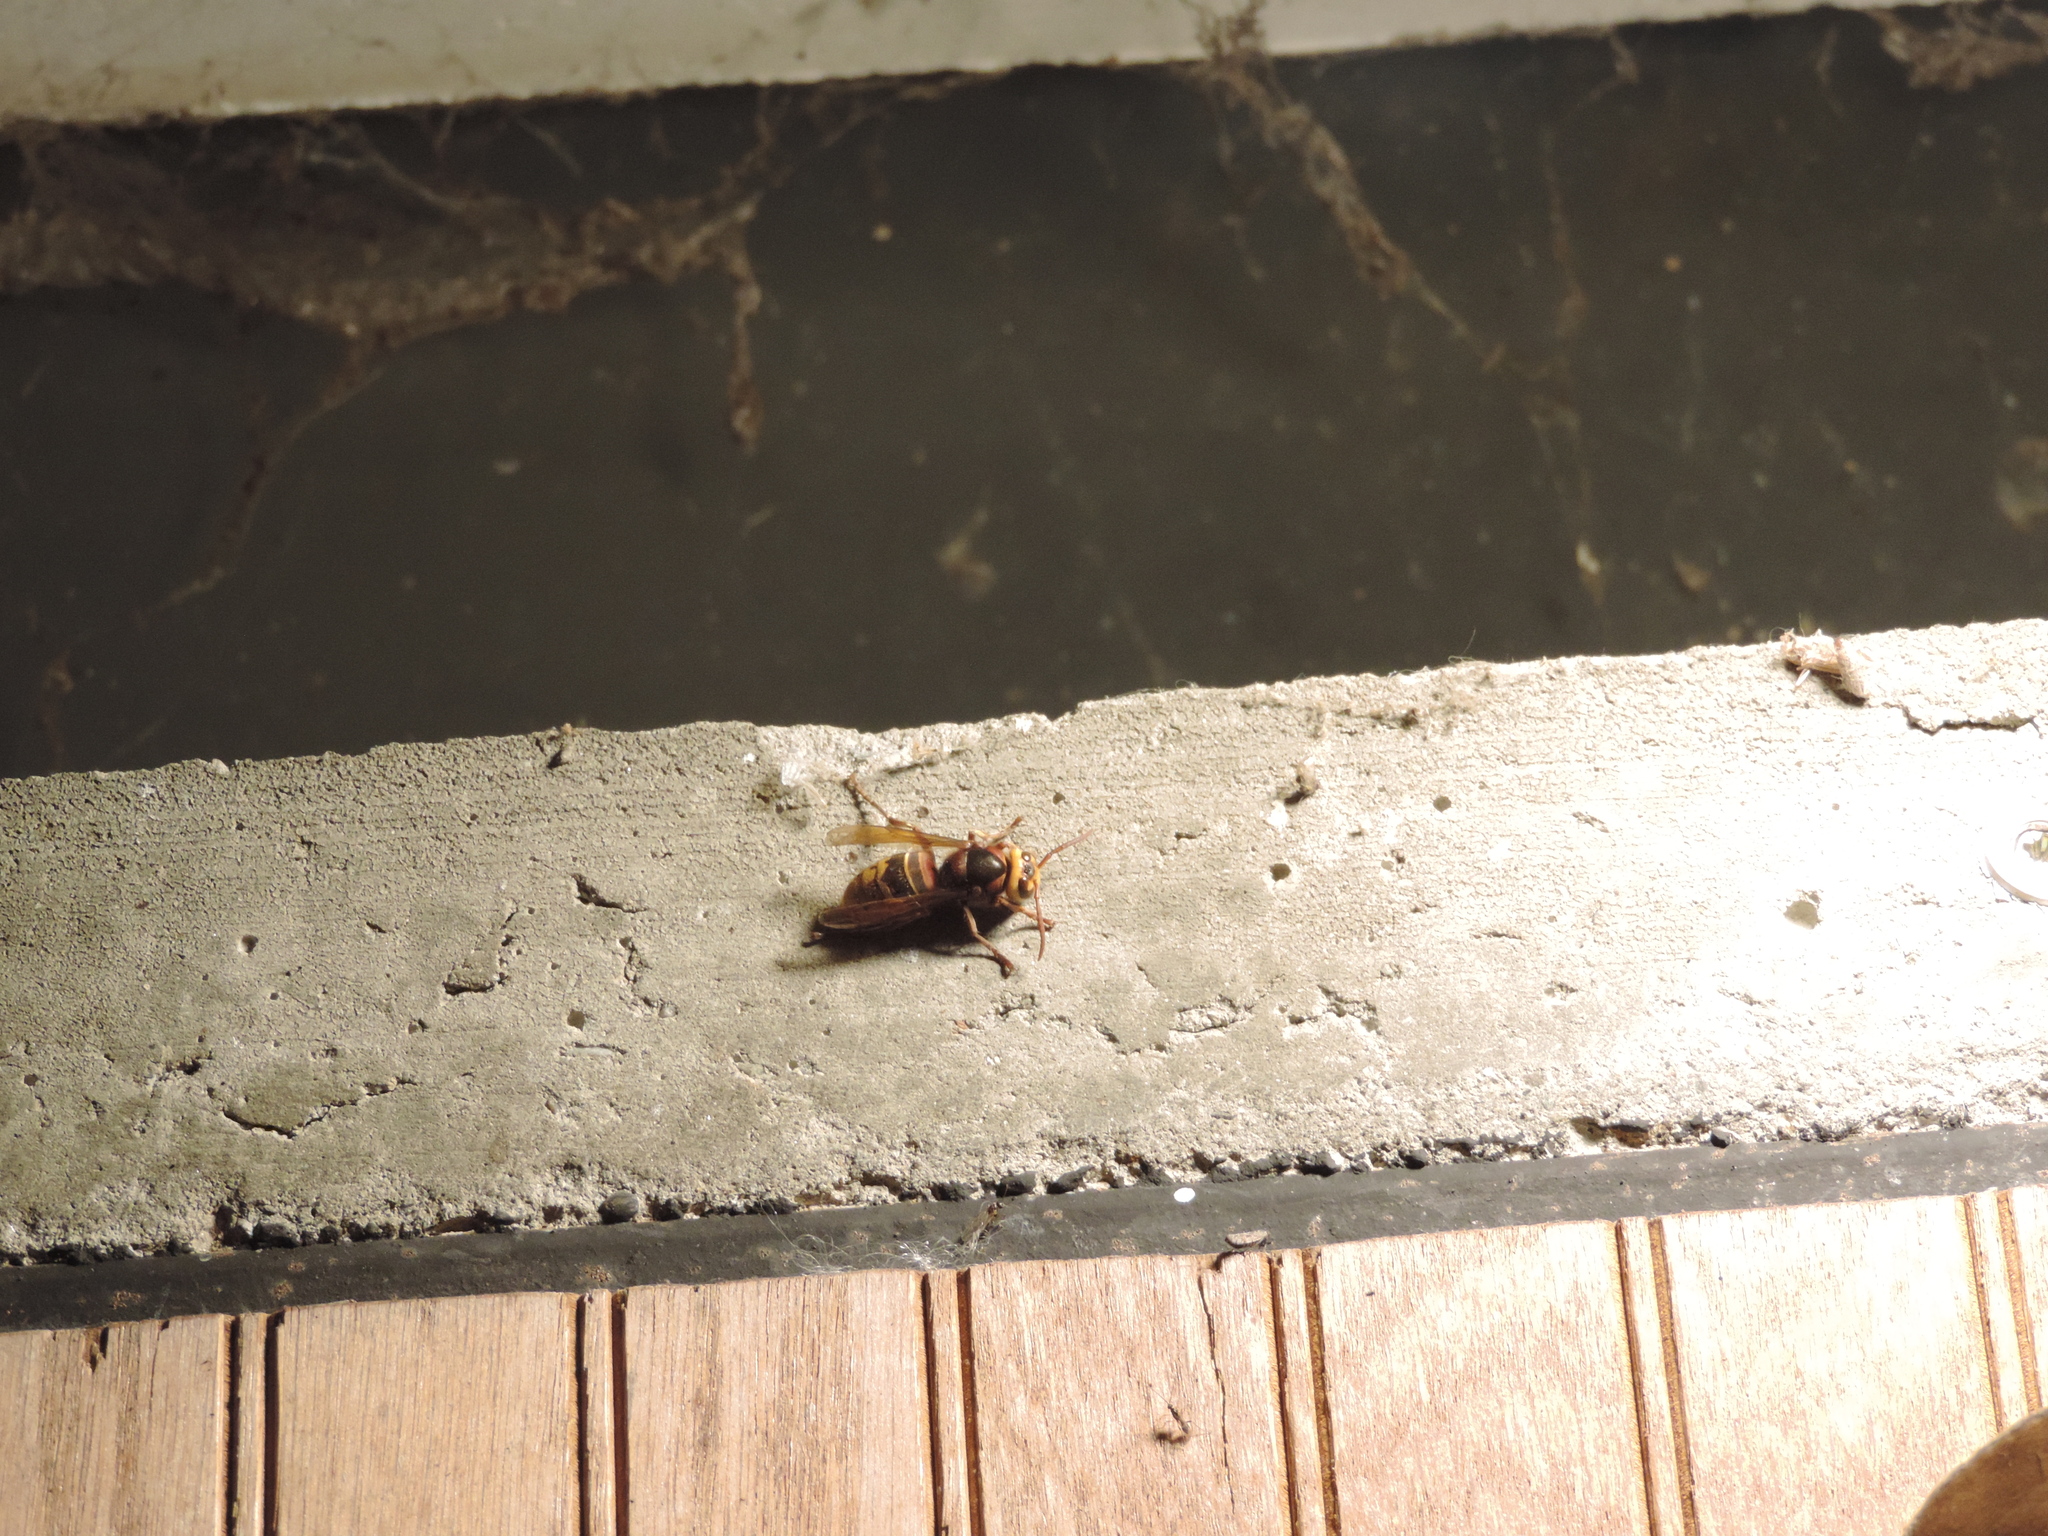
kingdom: Animalia
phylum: Arthropoda
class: Insecta
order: Hymenoptera
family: Vespidae
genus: Vespa
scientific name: Vespa crabro
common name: Hornet
